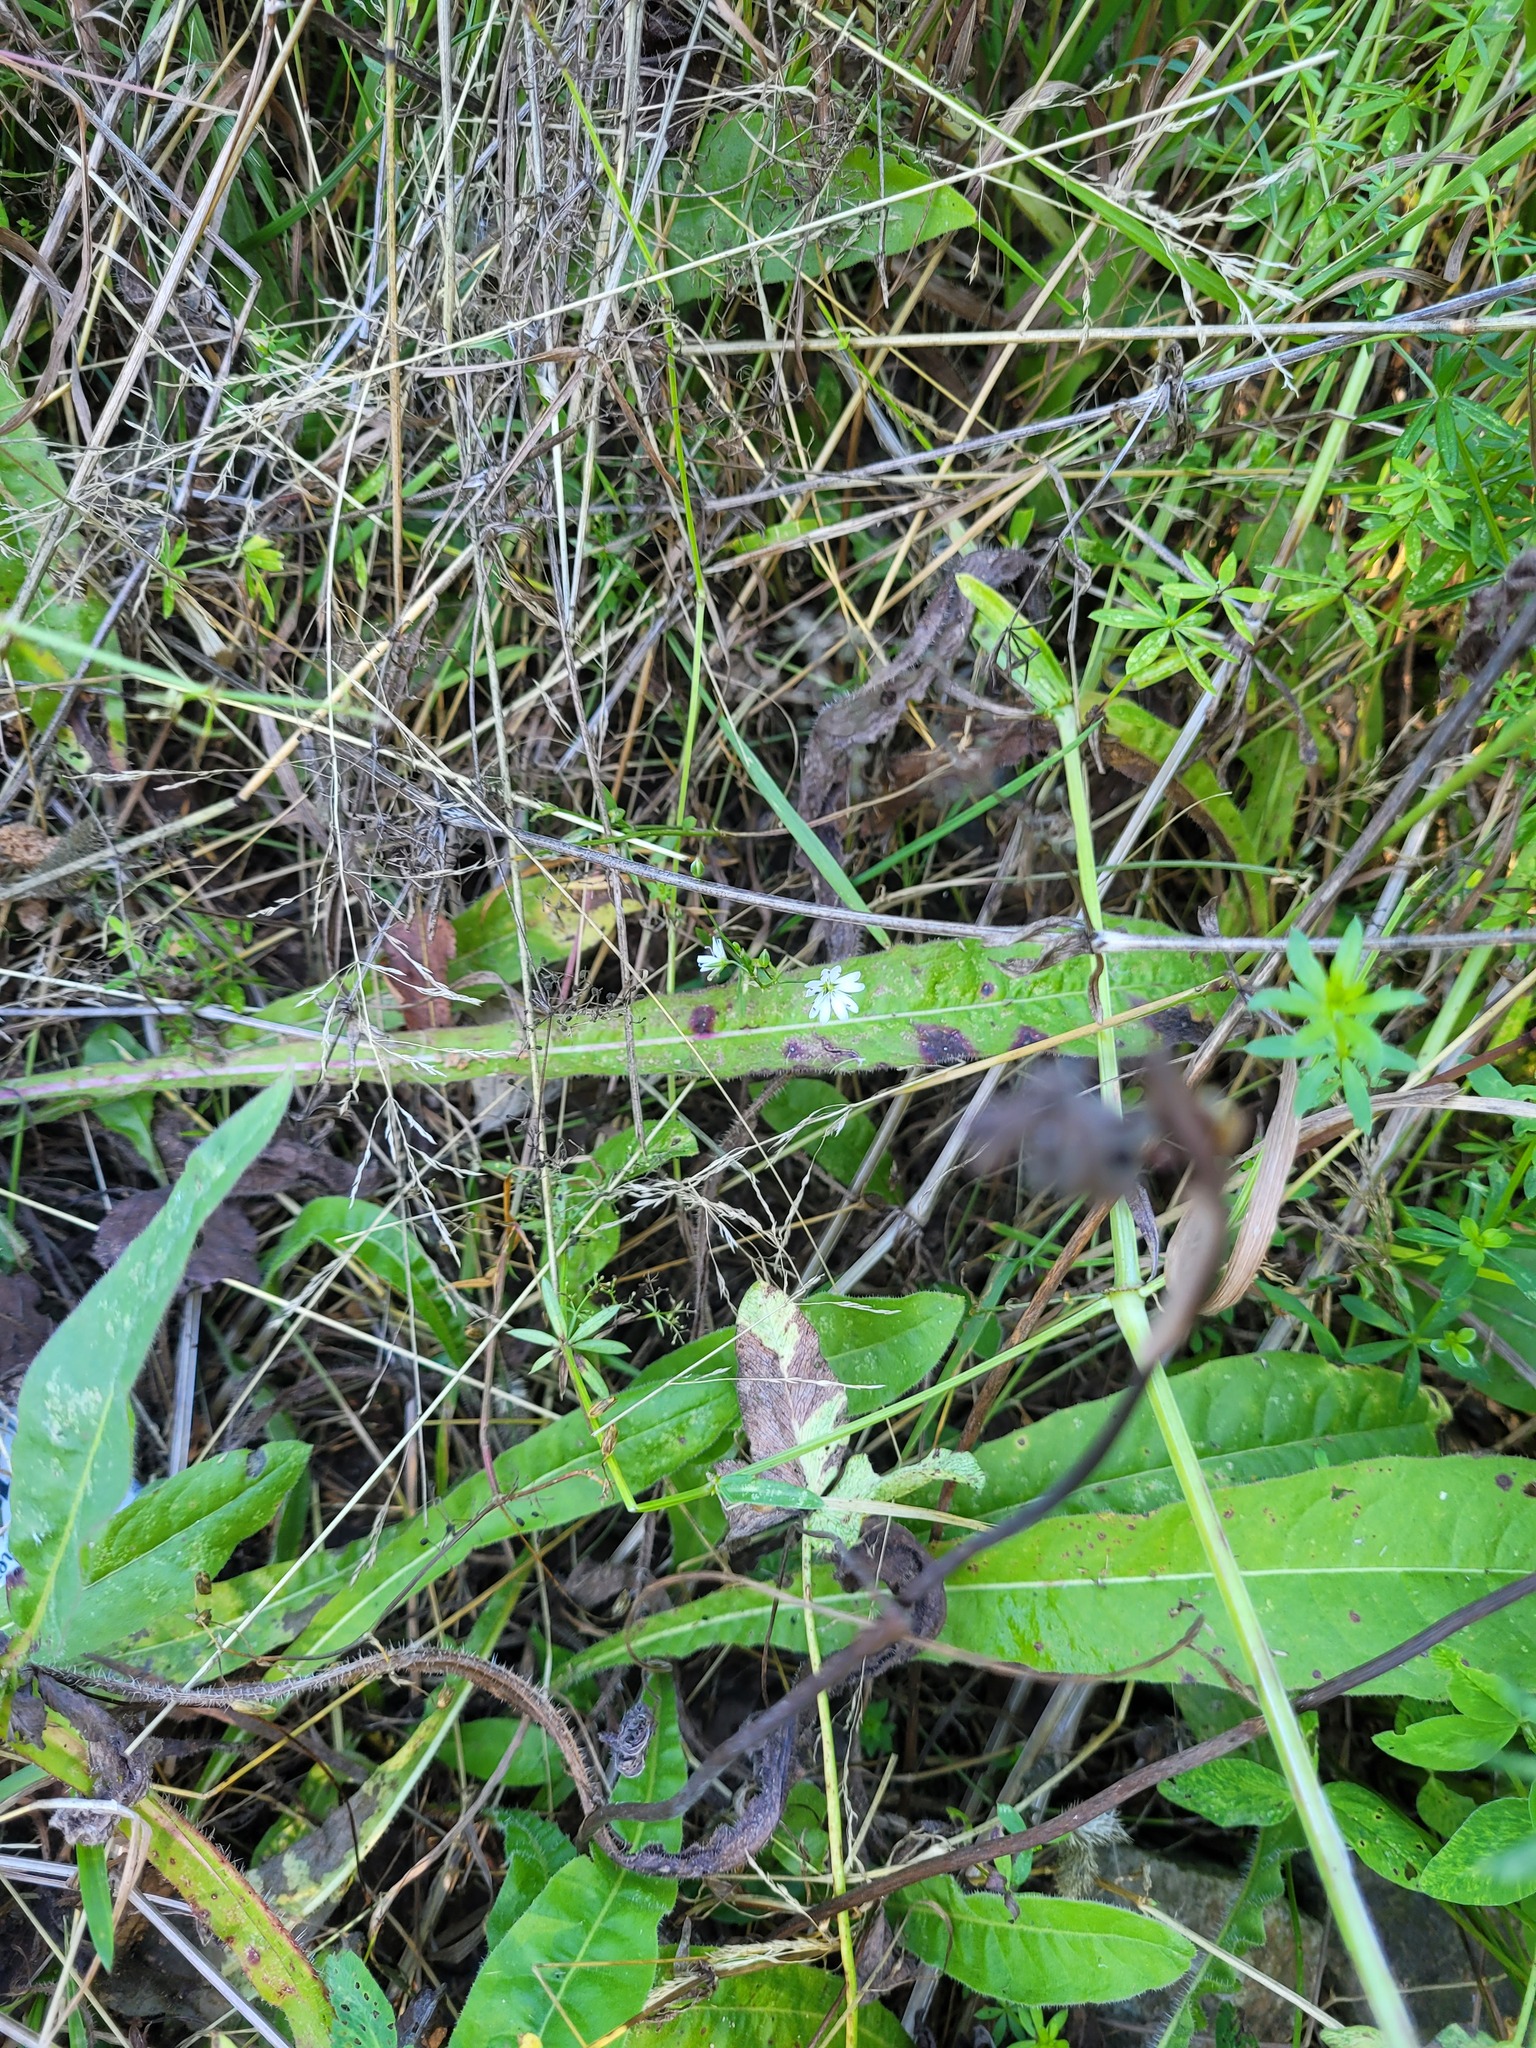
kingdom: Plantae
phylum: Tracheophyta
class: Magnoliopsida
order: Caryophyllales
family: Caryophyllaceae
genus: Stellaria
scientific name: Stellaria graminea
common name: Grass-like starwort
